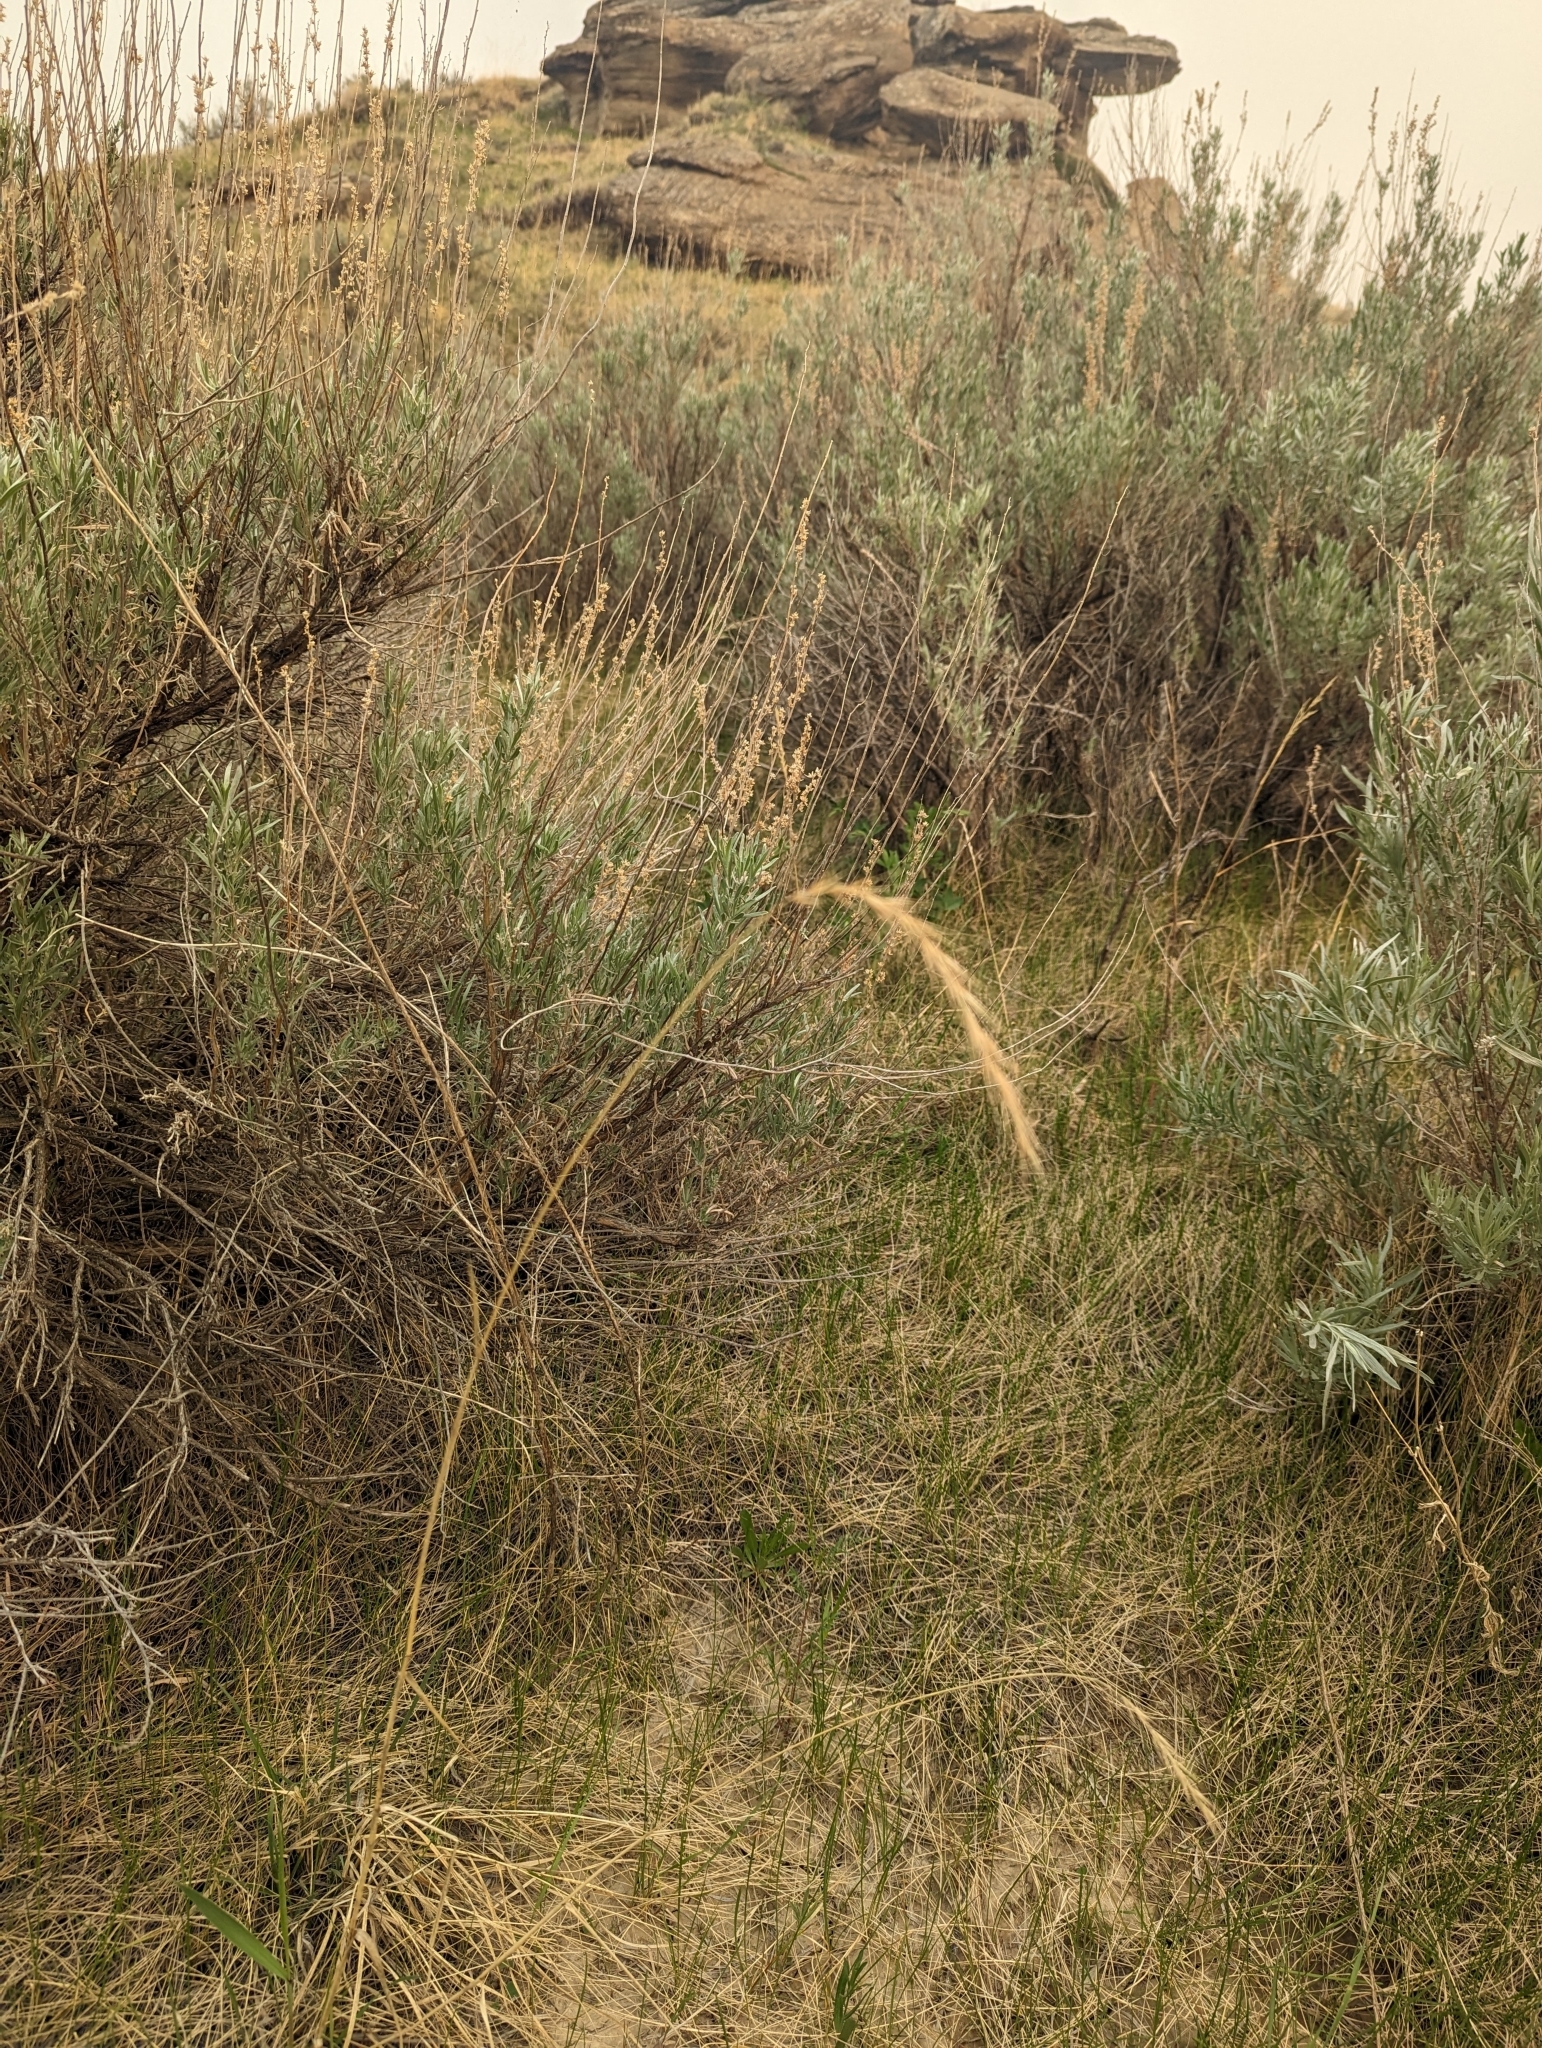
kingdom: Plantae
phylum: Tracheophyta
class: Liliopsida
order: Poales
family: Poaceae
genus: Elymus
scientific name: Elymus canadensis
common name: Canada wild rye
